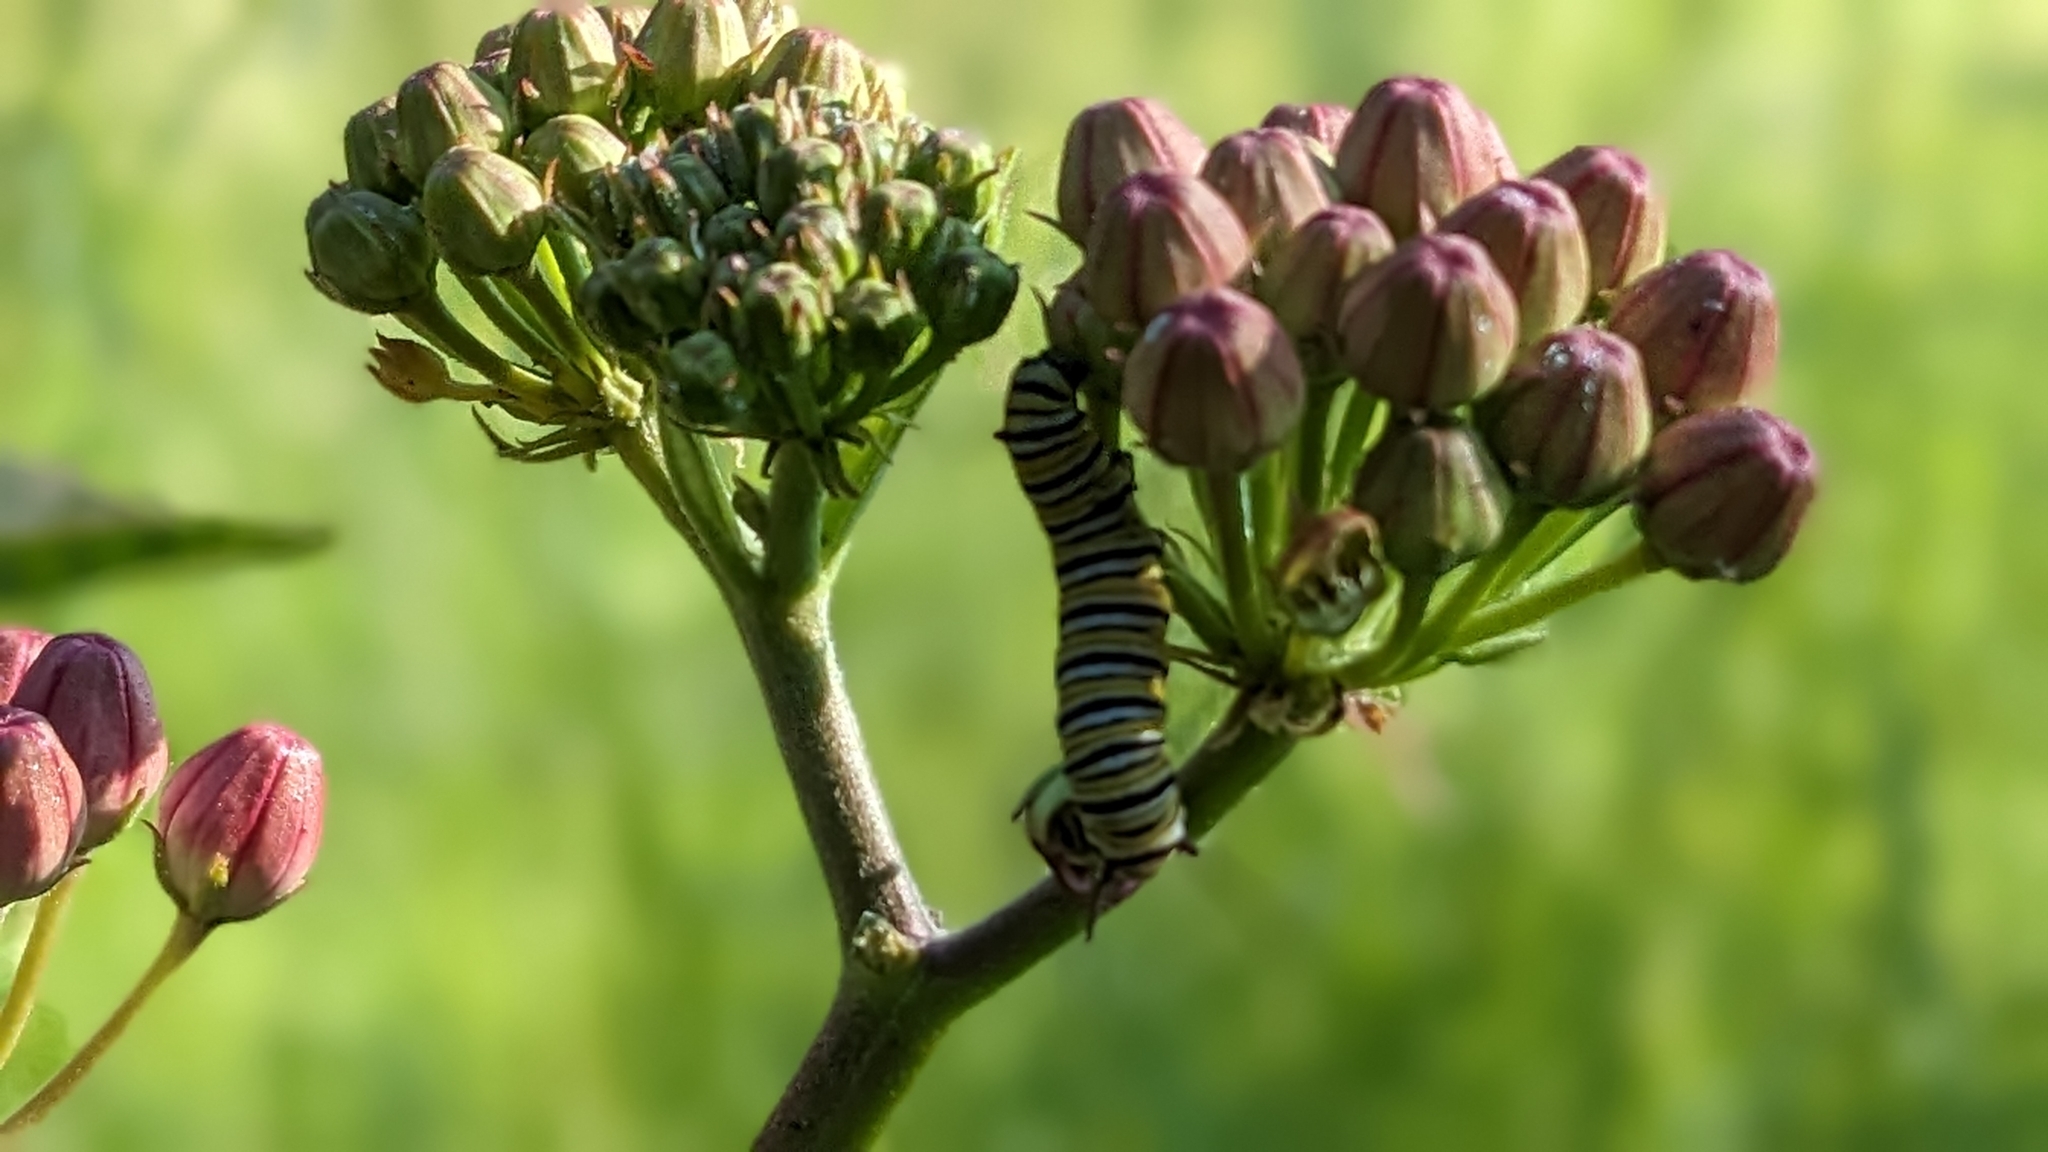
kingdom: Animalia
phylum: Arthropoda
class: Insecta
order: Lepidoptera
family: Nymphalidae
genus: Danaus
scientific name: Danaus plexippus
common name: Monarch
